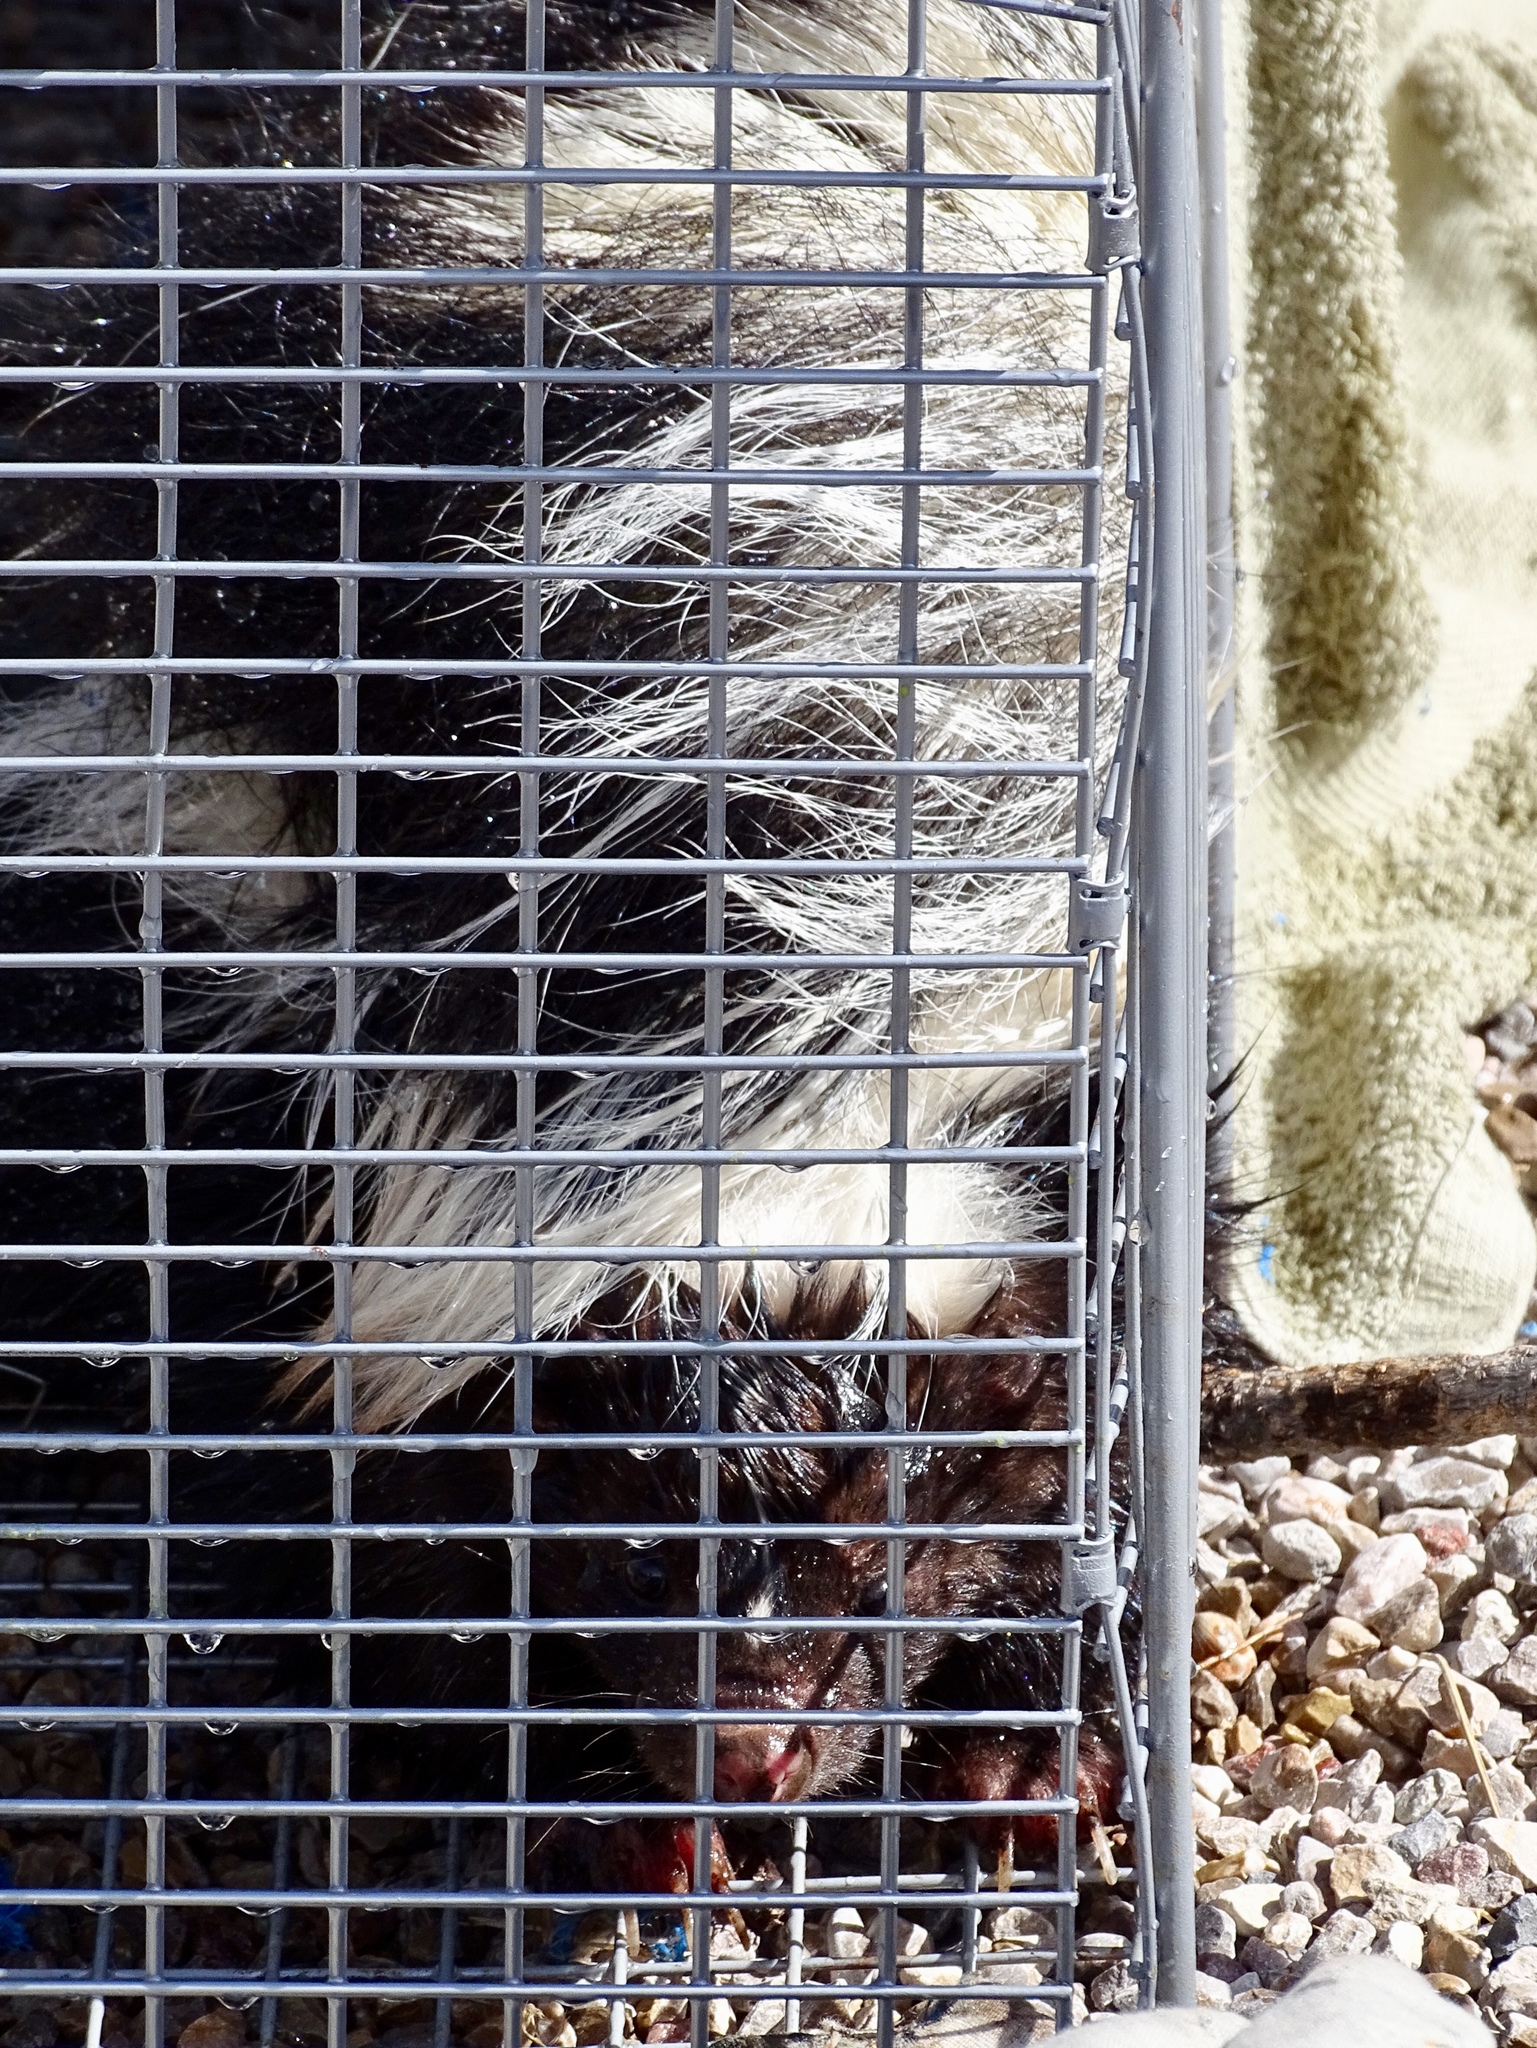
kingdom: Animalia
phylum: Chordata
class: Mammalia
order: Carnivora
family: Mephitidae
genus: Mephitis
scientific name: Mephitis mephitis
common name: Striped skunk
